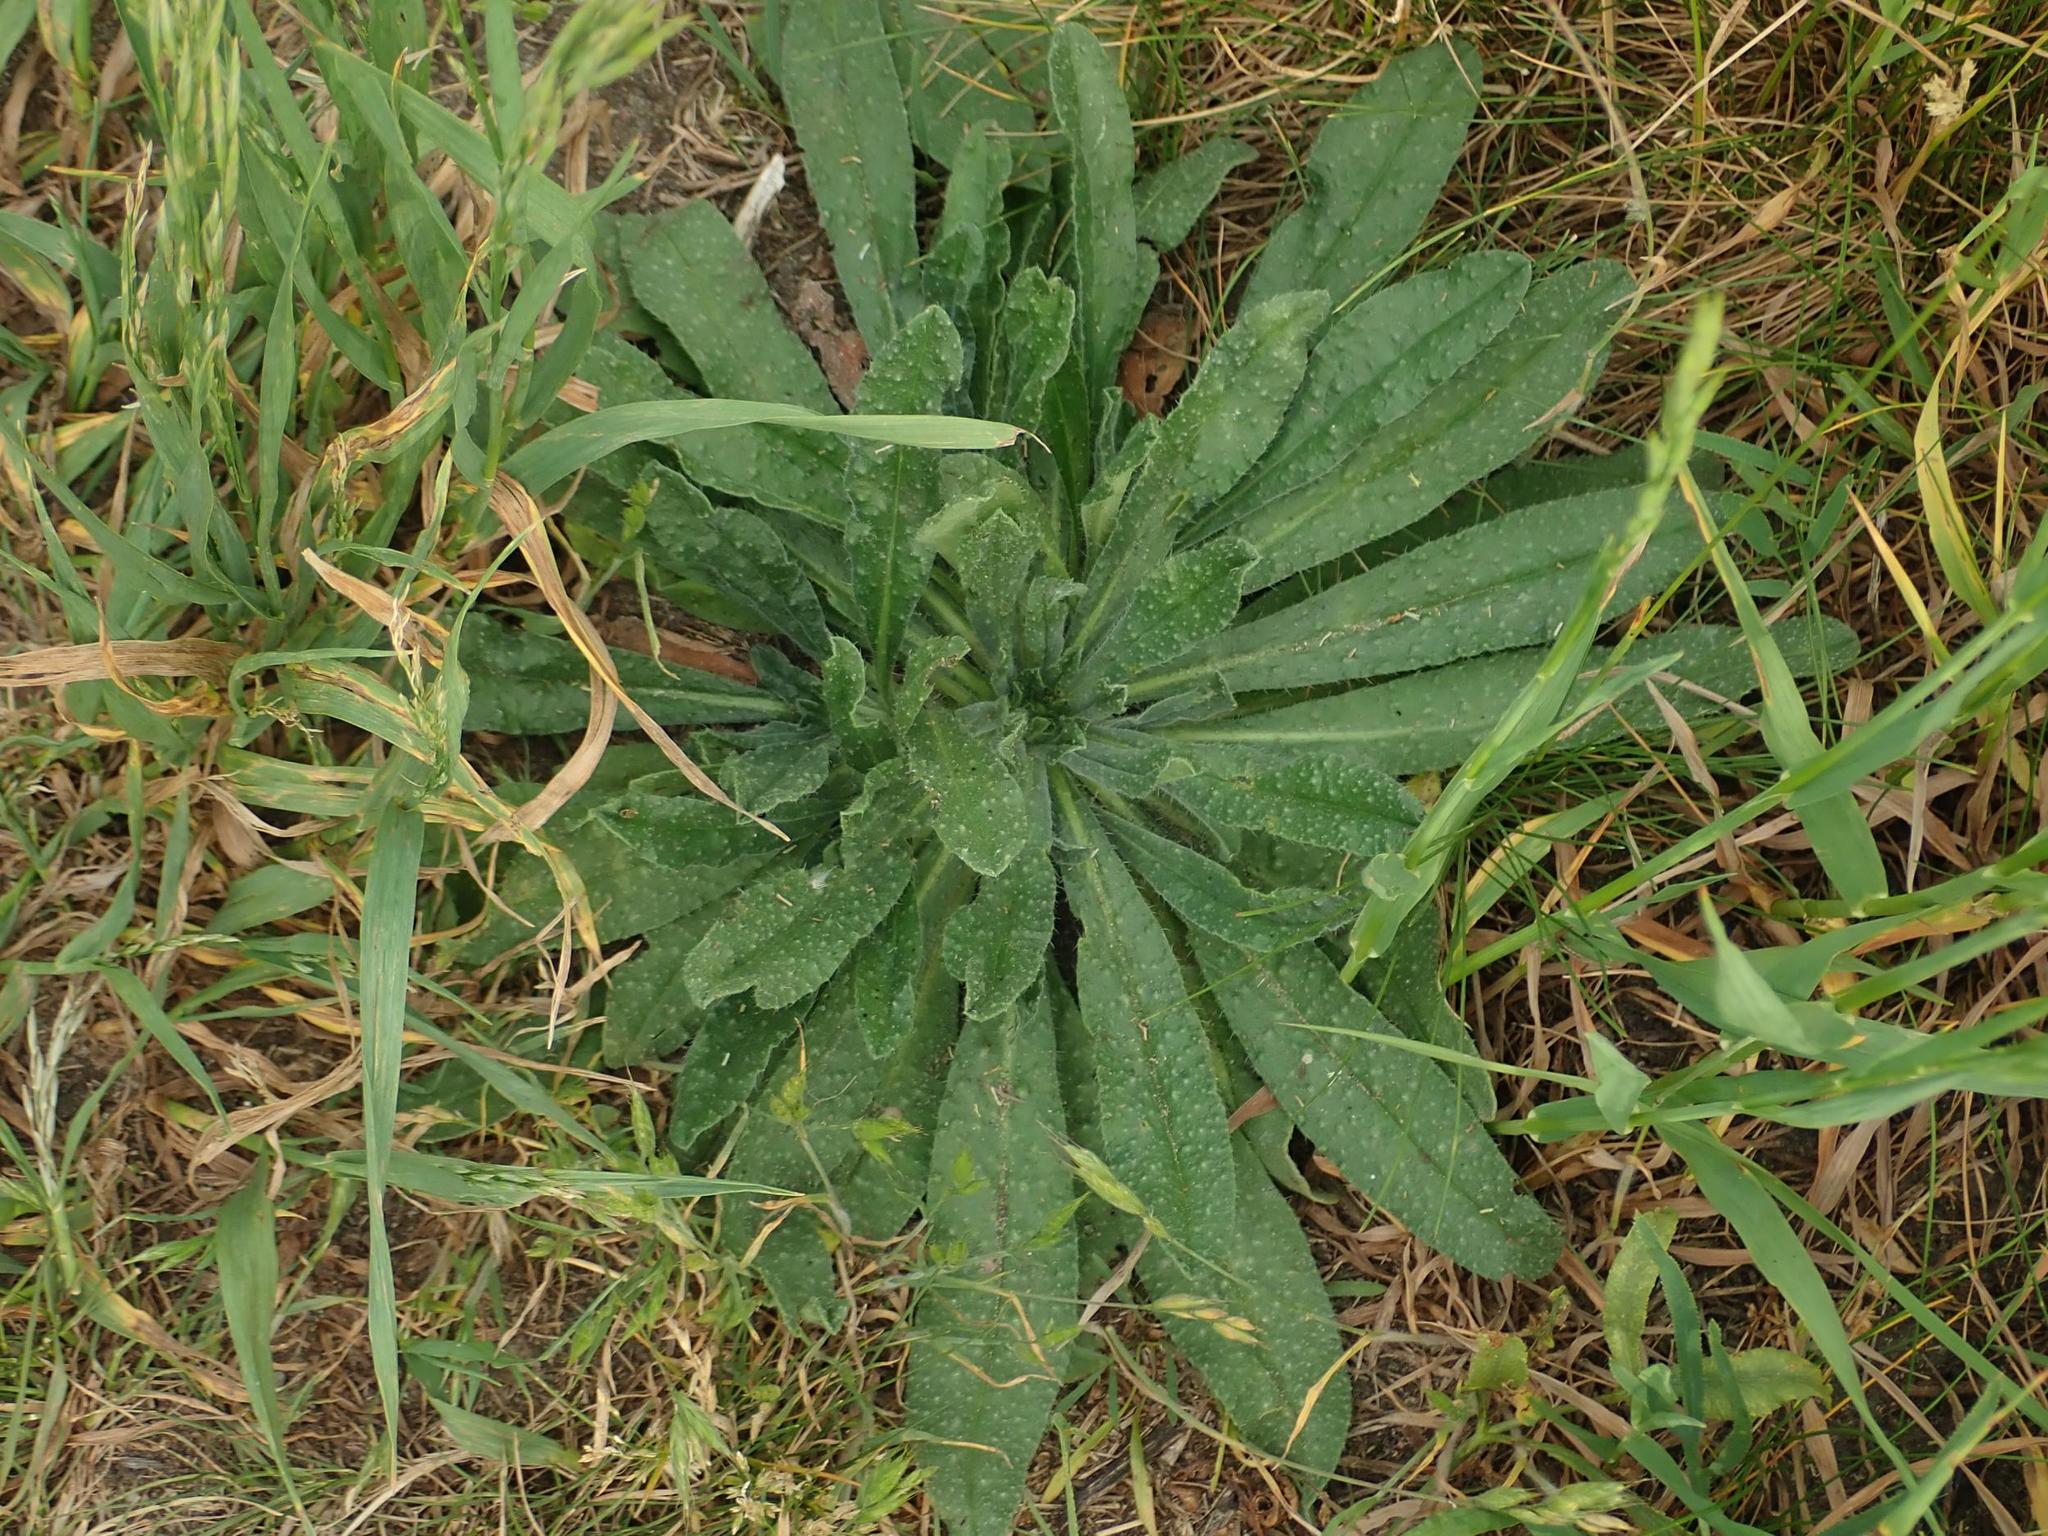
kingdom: Plantae
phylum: Tracheophyta
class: Magnoliopsida
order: Boraginales
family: Boraginaceae
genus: Echium
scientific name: Echium vulgare
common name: Common viper's bugloss
